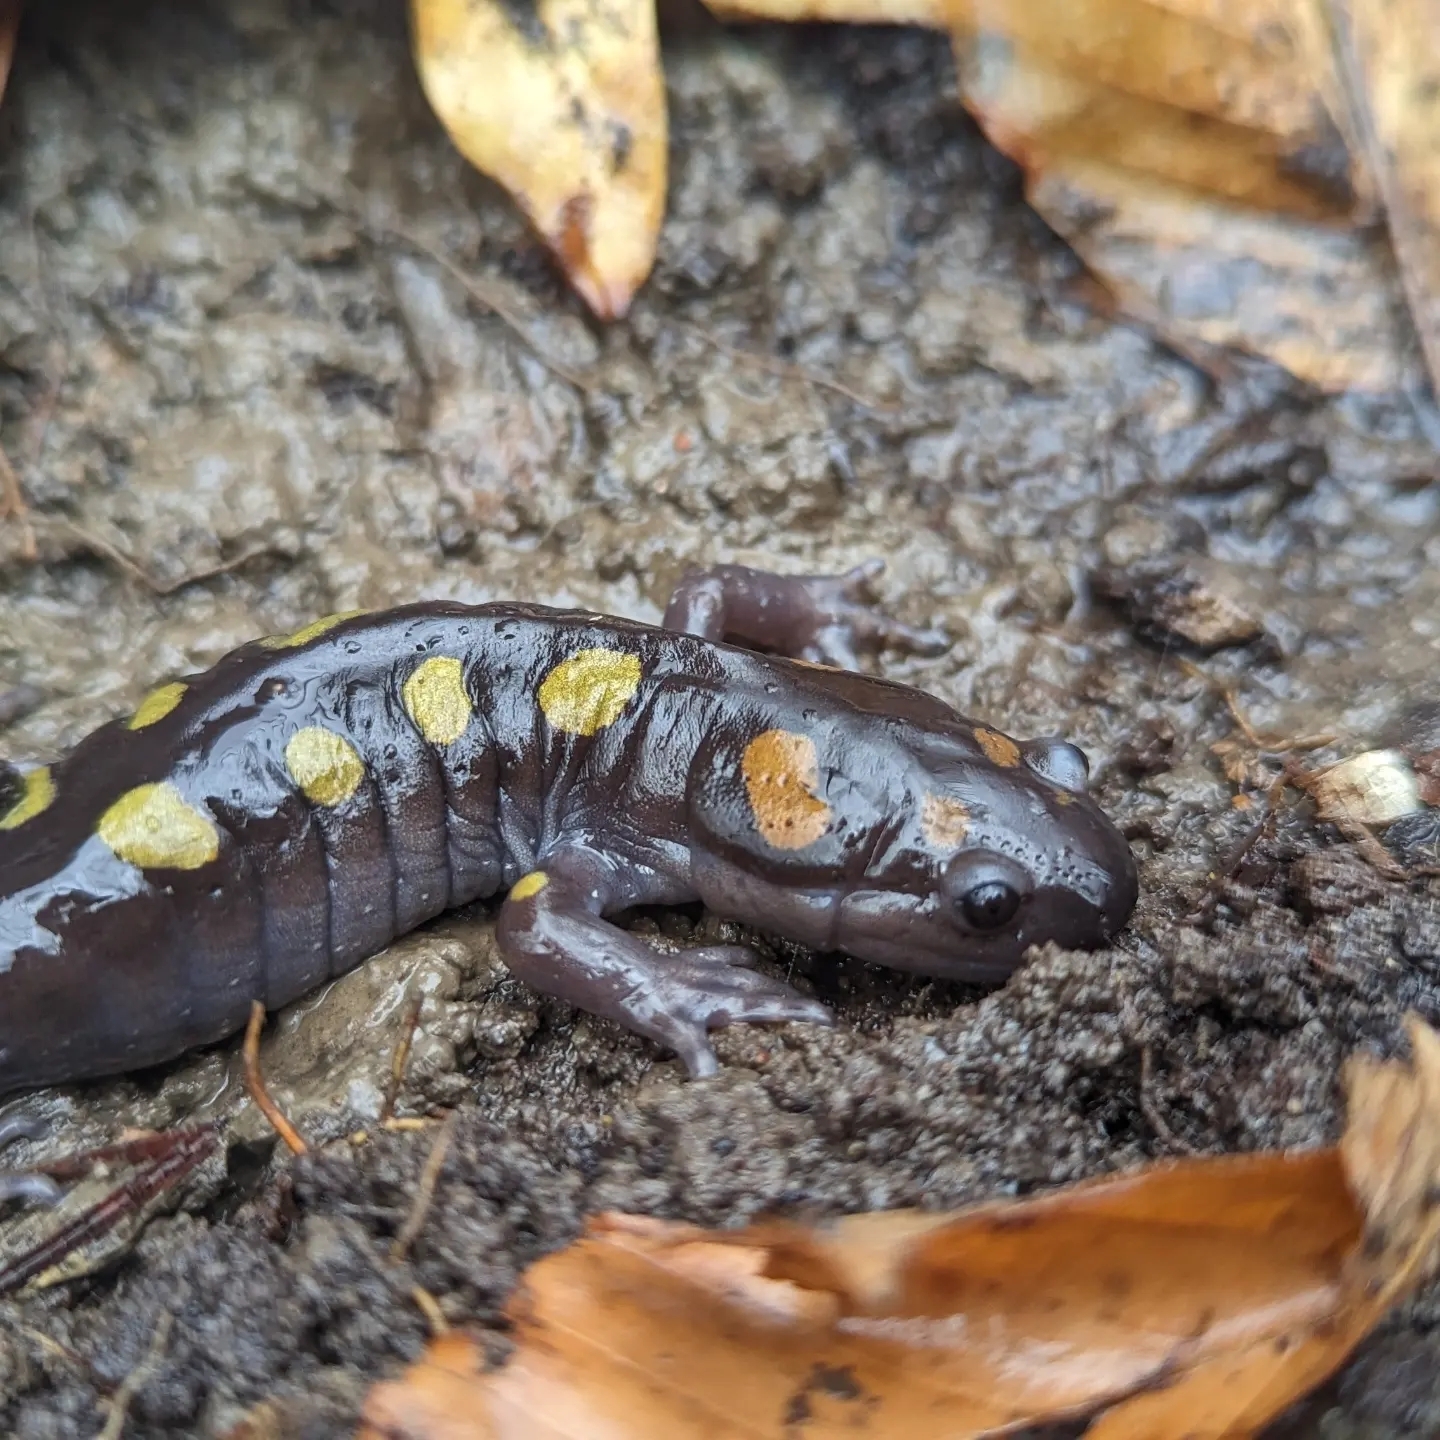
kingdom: Animalia
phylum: Chordata
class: Amphibia
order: Caudata
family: Ambystomatidae
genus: Ambystoma
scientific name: Ambystoma maculatum
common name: Spotted salamander
